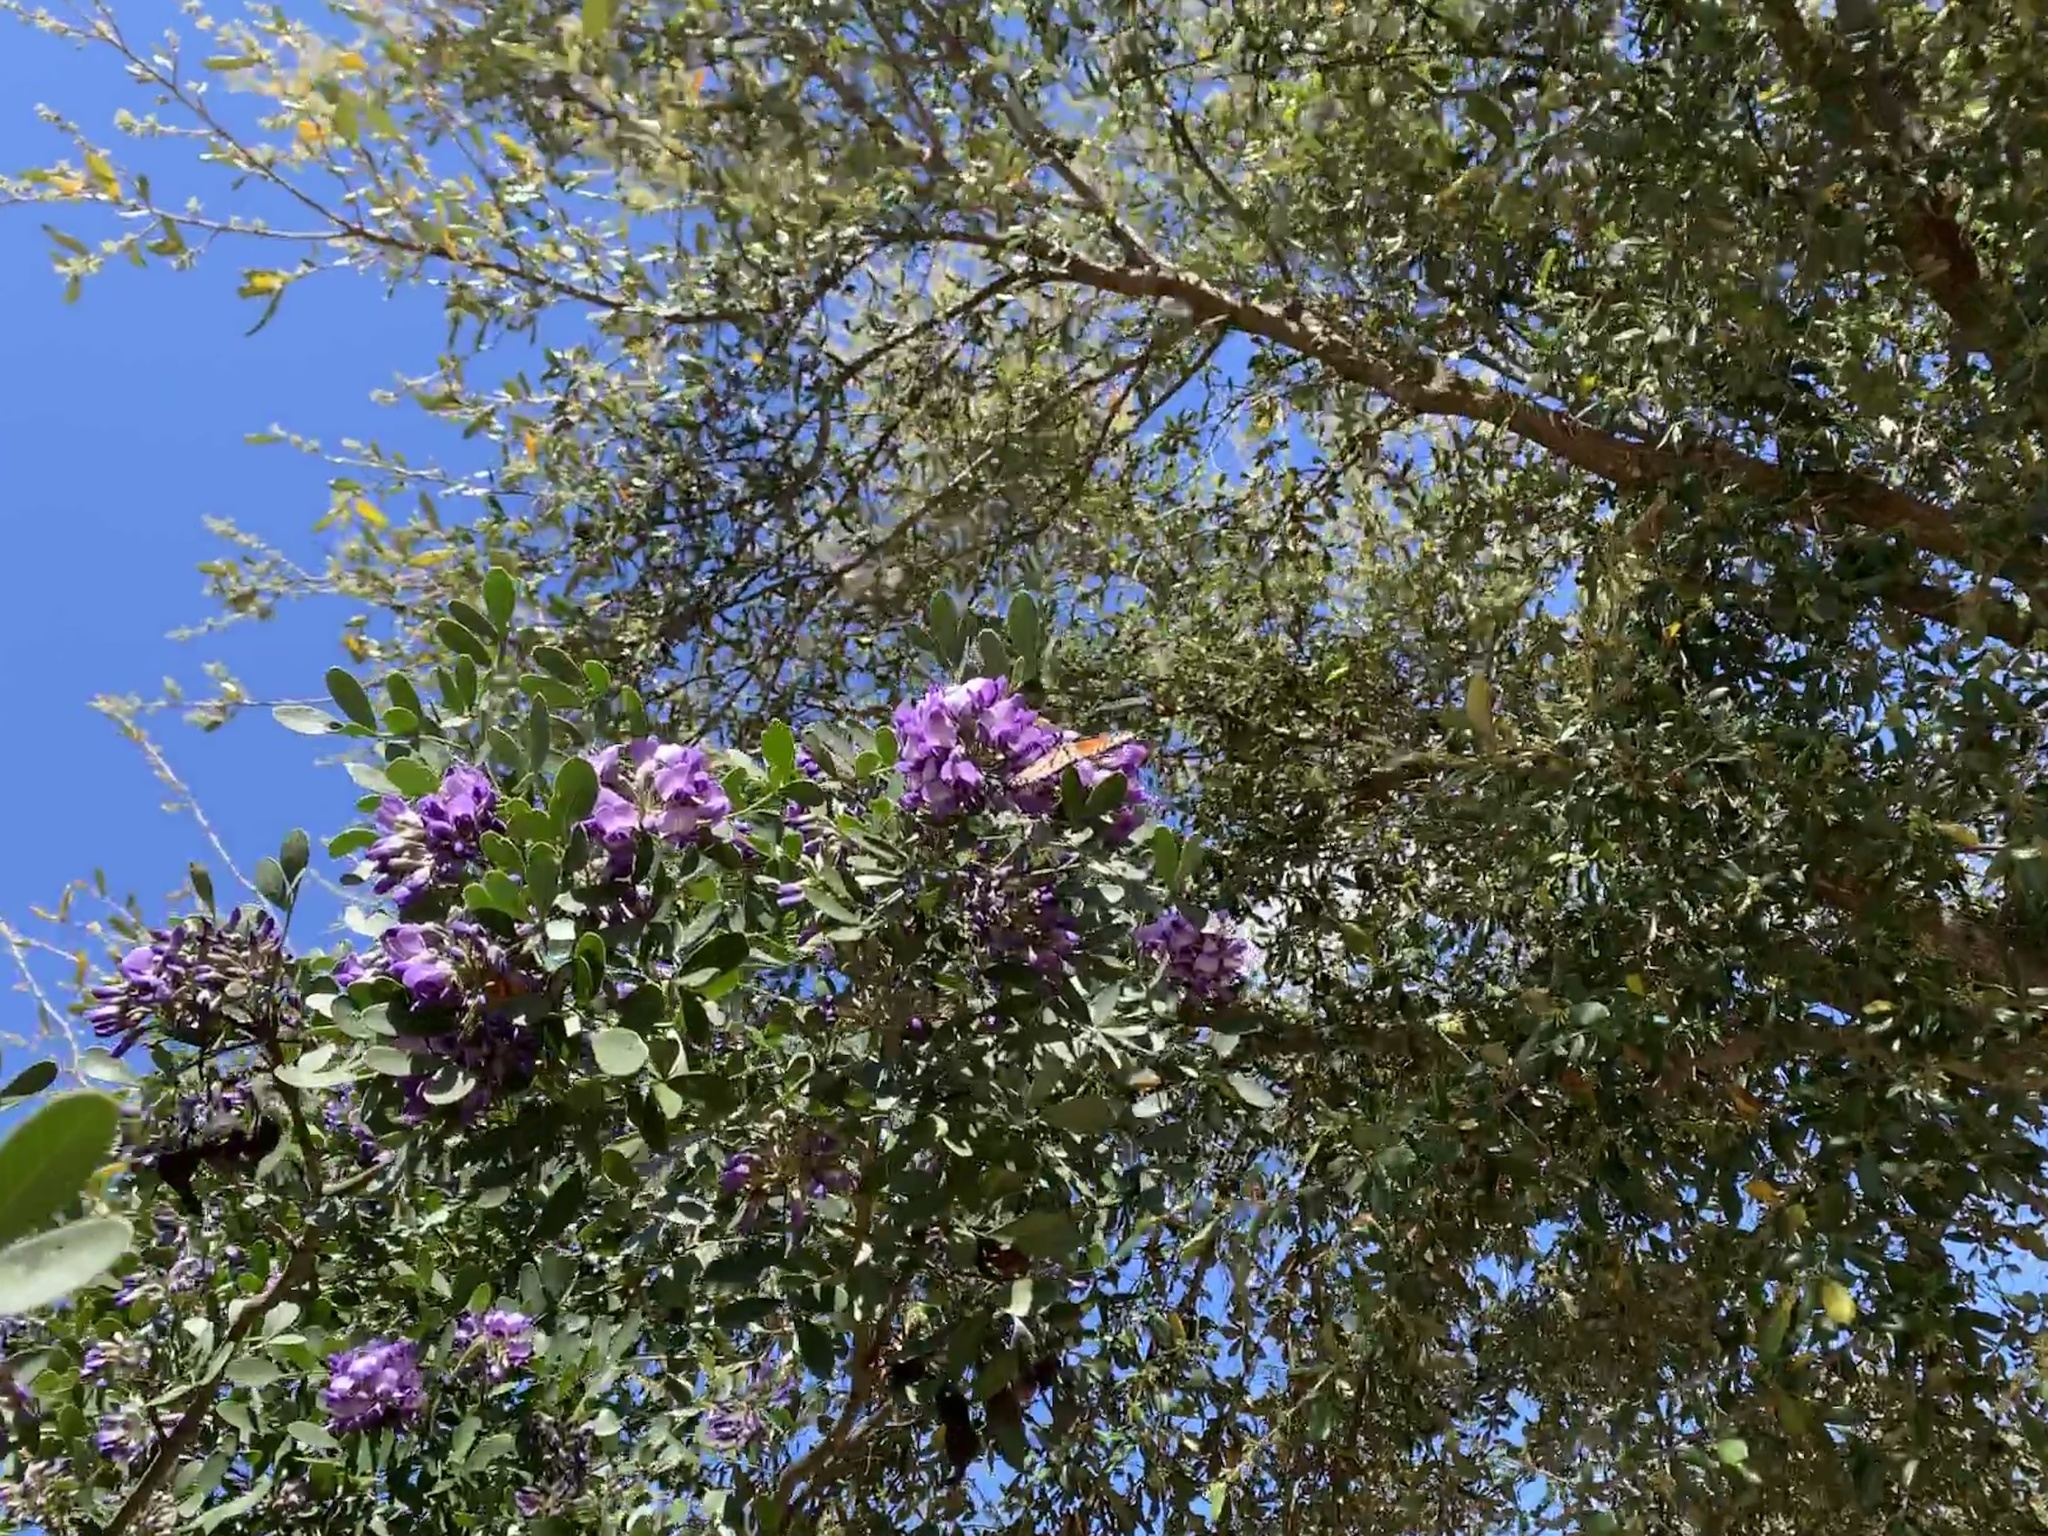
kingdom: Animalia
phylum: Arthropoda
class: Insecta
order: Lepidoptera
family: Nymphalidae
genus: Danaus
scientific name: Danaus plexippus
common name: Monarch
